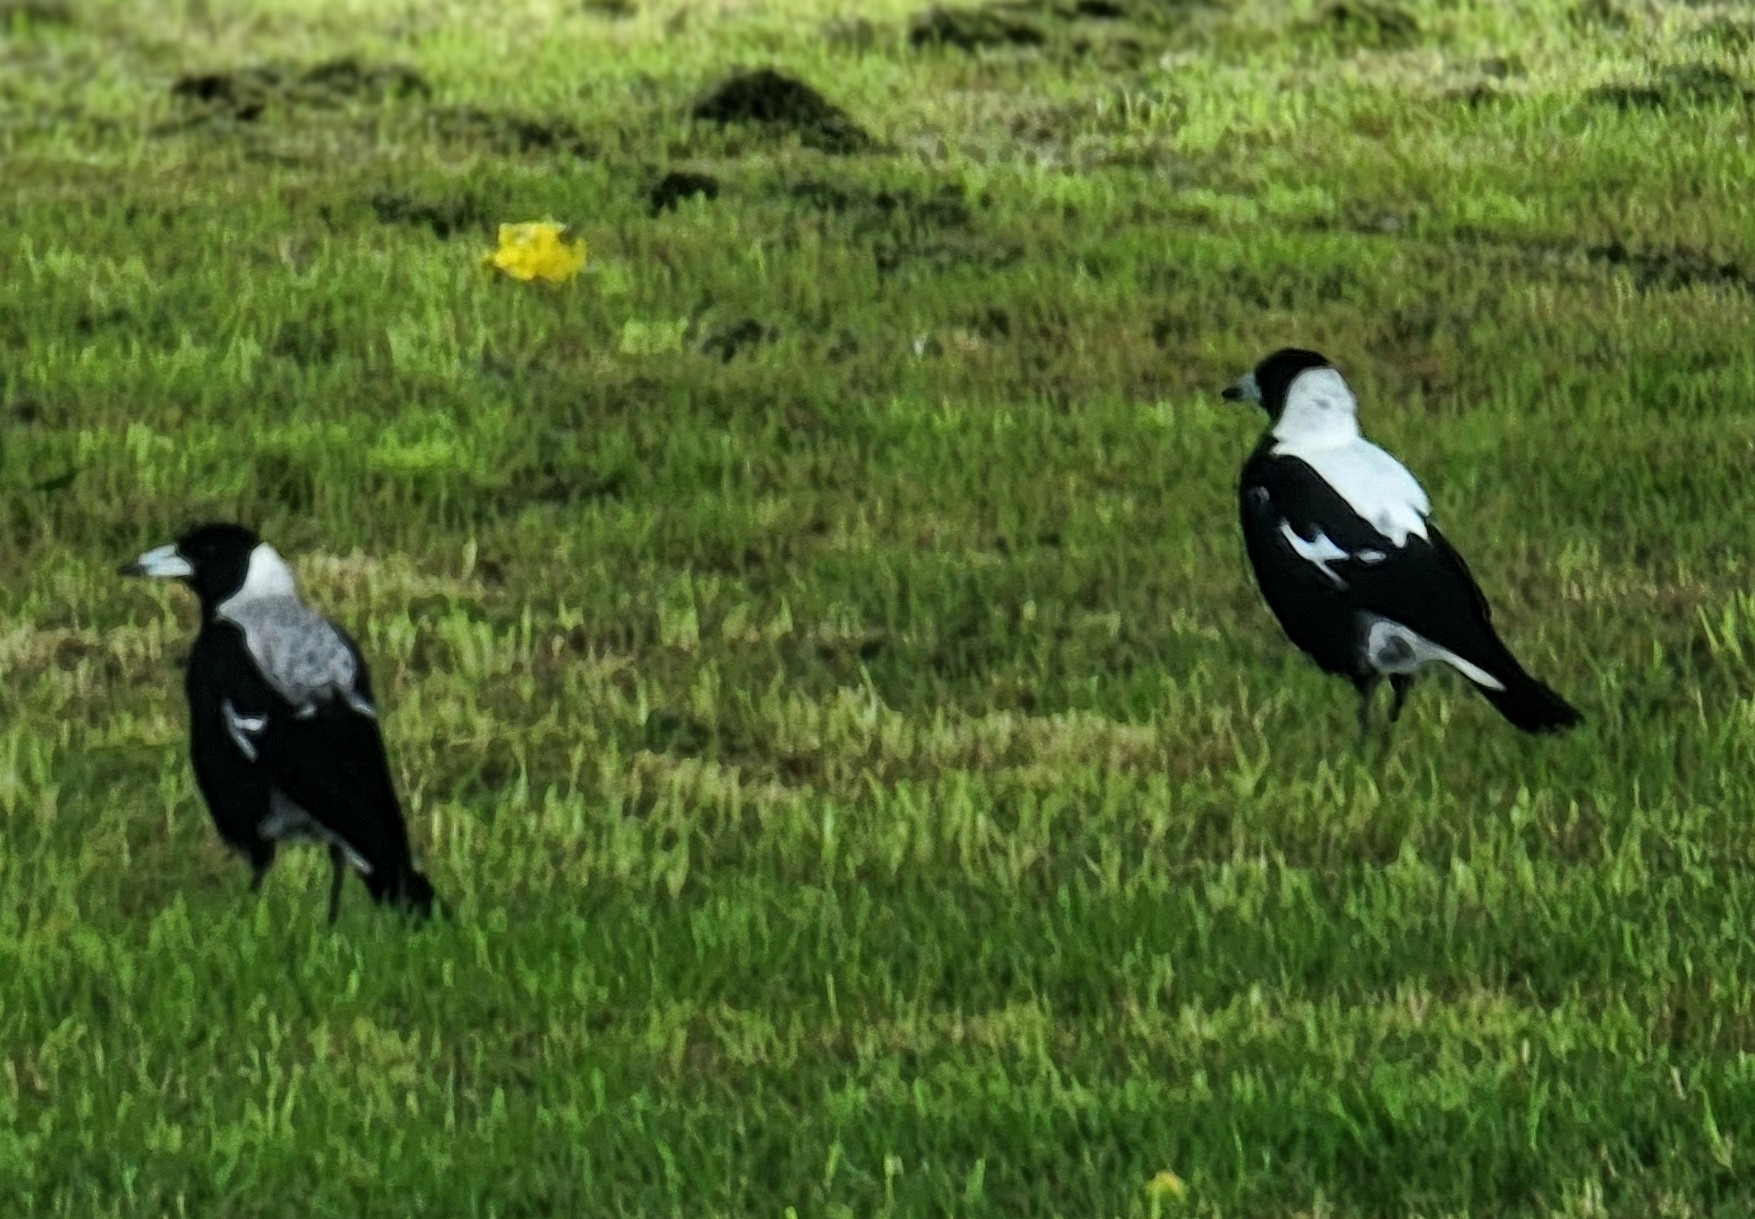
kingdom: Animalia
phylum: Chordata
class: Aves
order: Passeriformes
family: Cracticidae
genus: Gymnorhina
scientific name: Gymnorhina tibicen
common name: Australian magpie
